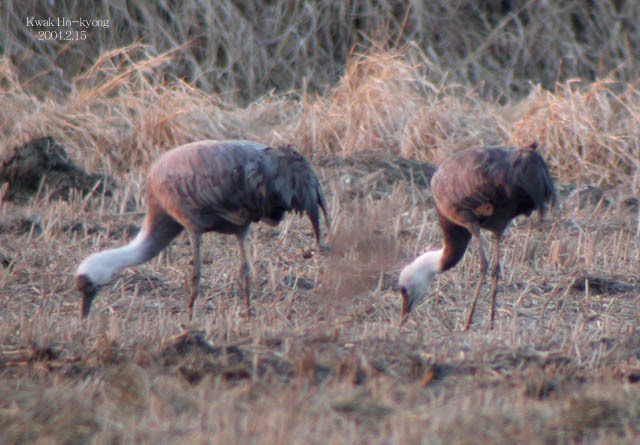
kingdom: Animalia
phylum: Chordata
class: Aves
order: Gruiformes
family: Gruidae
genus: Grus
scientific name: Grus monacha
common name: Hooded crane
